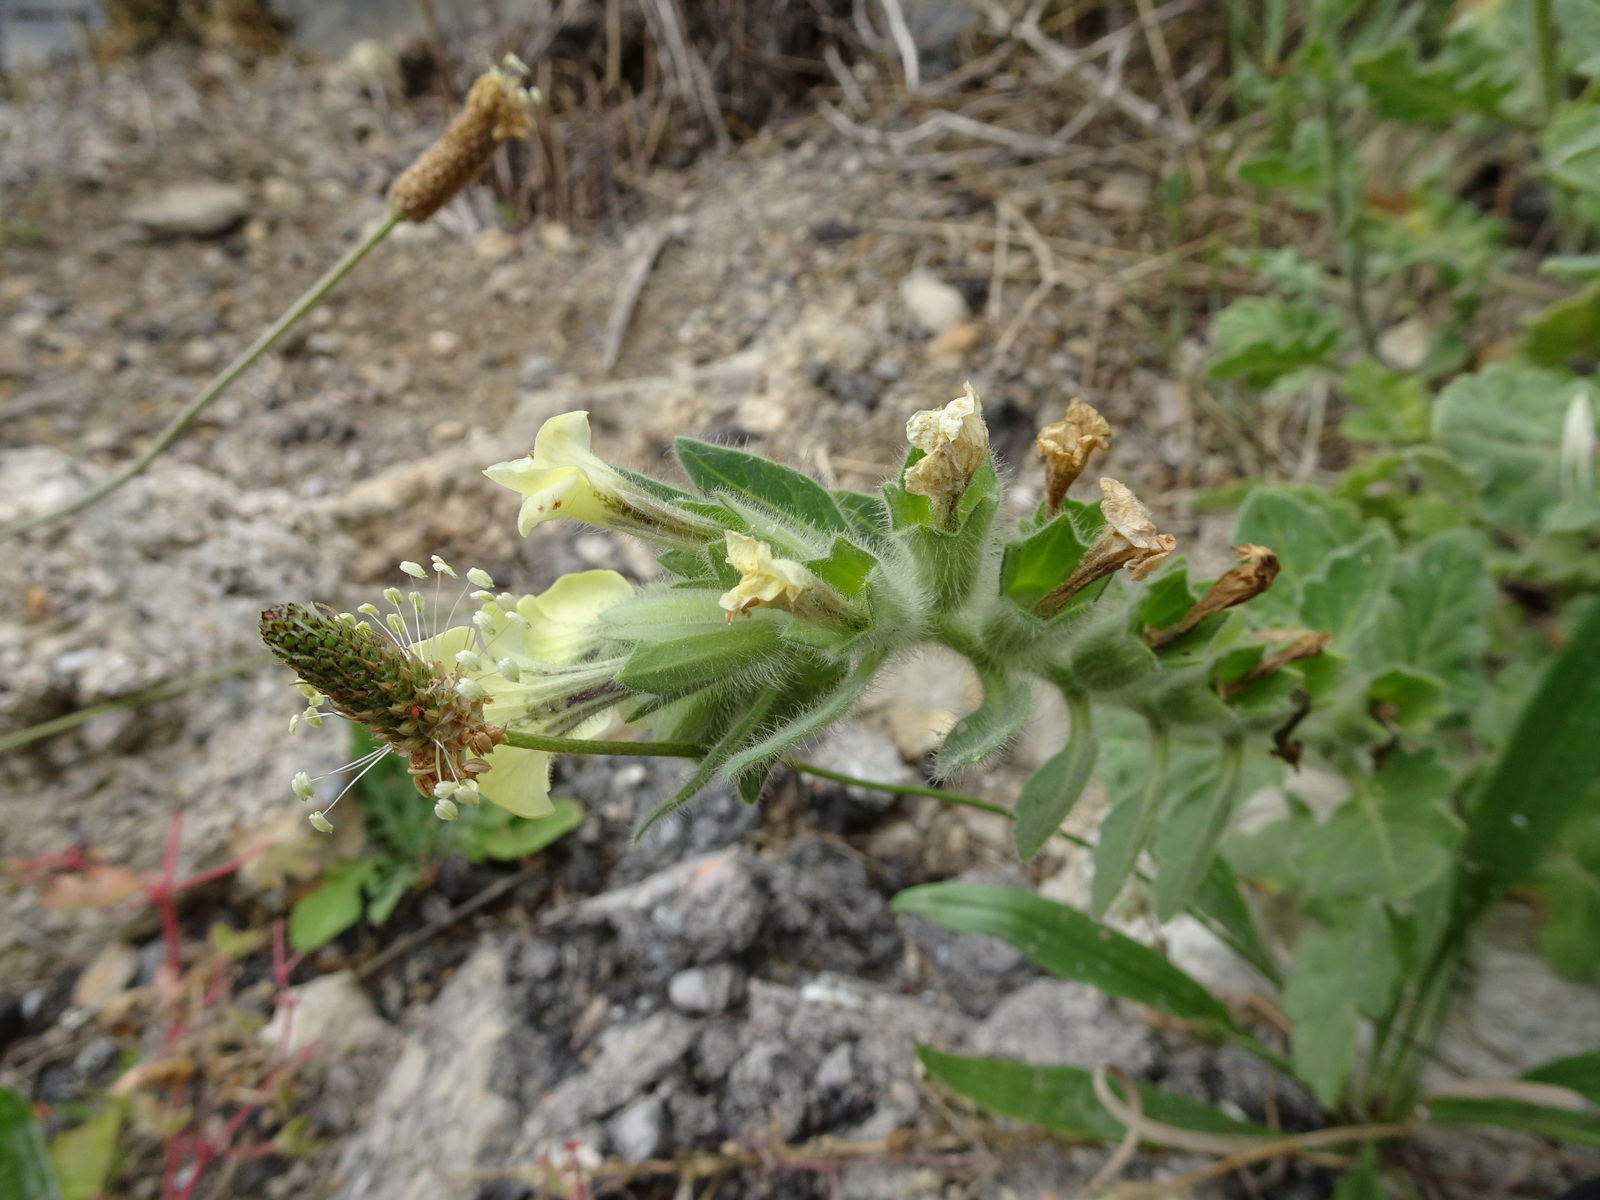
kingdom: Plantae
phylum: Tracheophyta
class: Magnoliopsida
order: Solanales
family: Solanaceae
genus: Hyoscyamus
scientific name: Hyoscyamus albus
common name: White henbane
